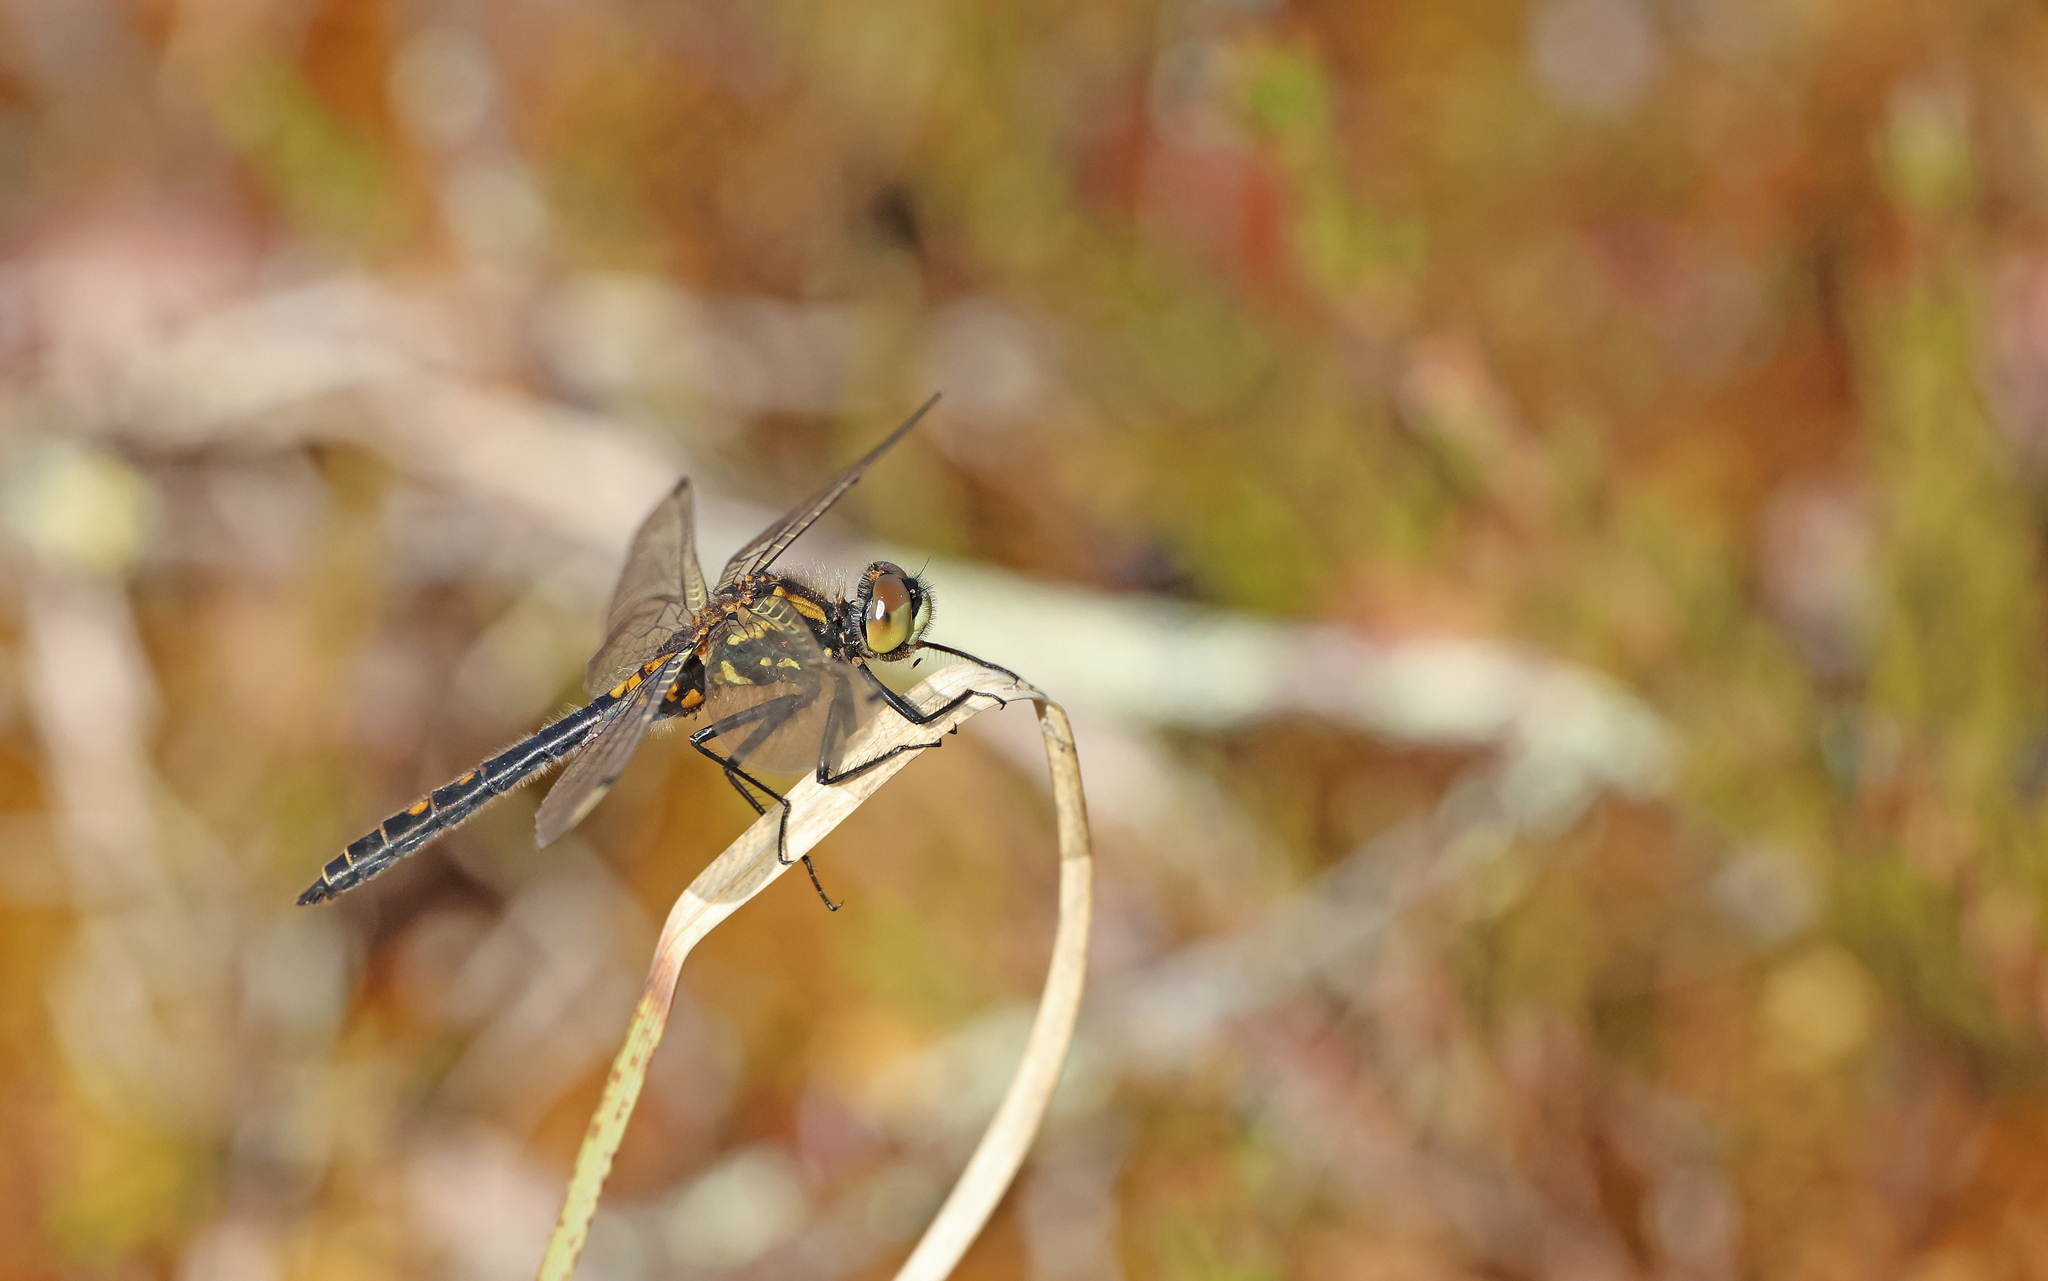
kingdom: Animalia
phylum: Arthropoda
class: Insecta
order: Odonata
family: Libellulidae
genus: Leucorrhinia
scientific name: Leucorrhinia dubia
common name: White-faced darter
